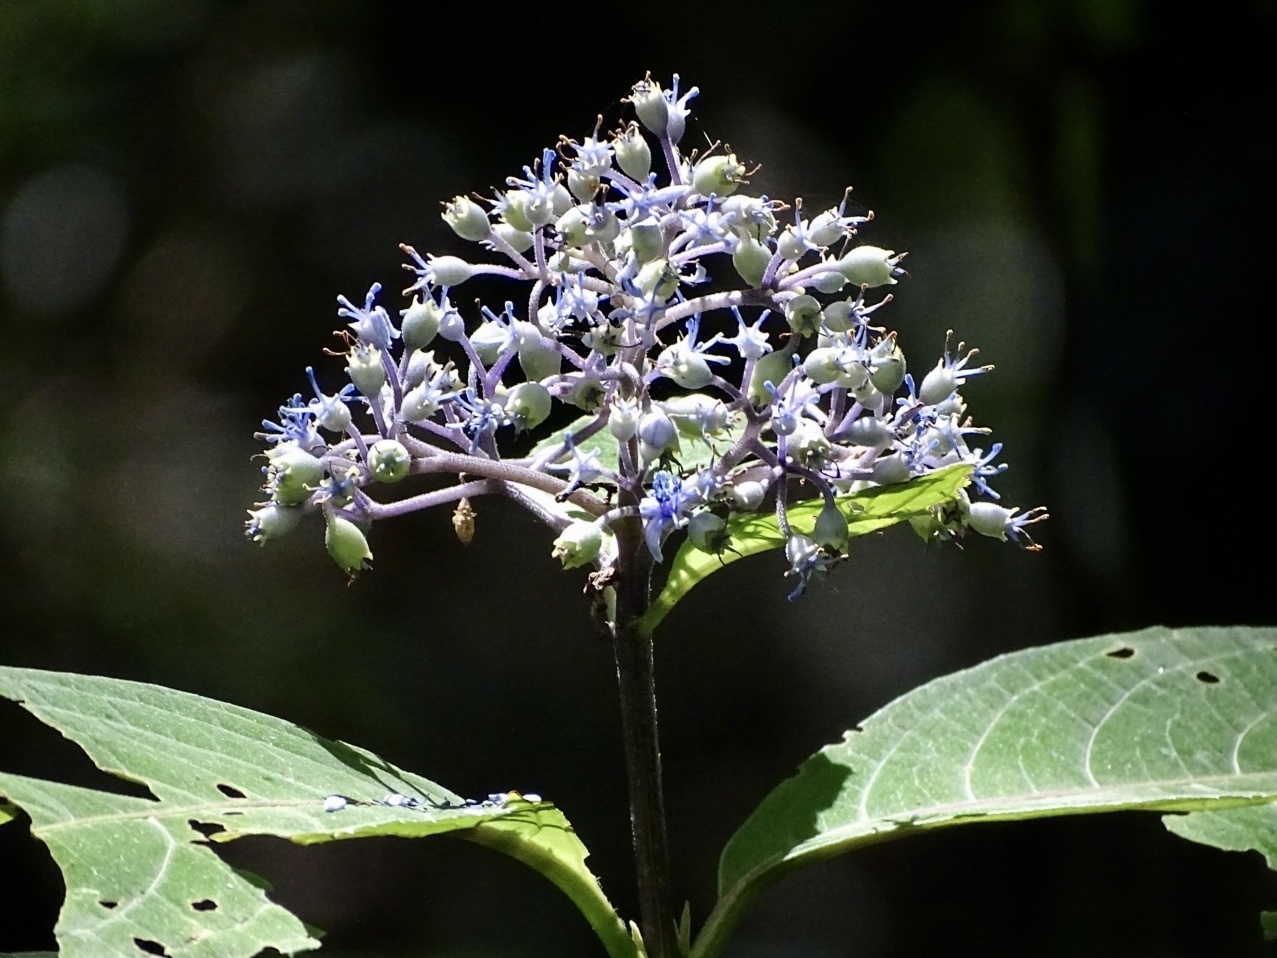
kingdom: Plantae
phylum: Tracheophyta
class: Magnoliopsida
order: Cornales
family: Hydrangeaceae
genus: Hydrangea
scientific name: Hydrangea febrifuga
